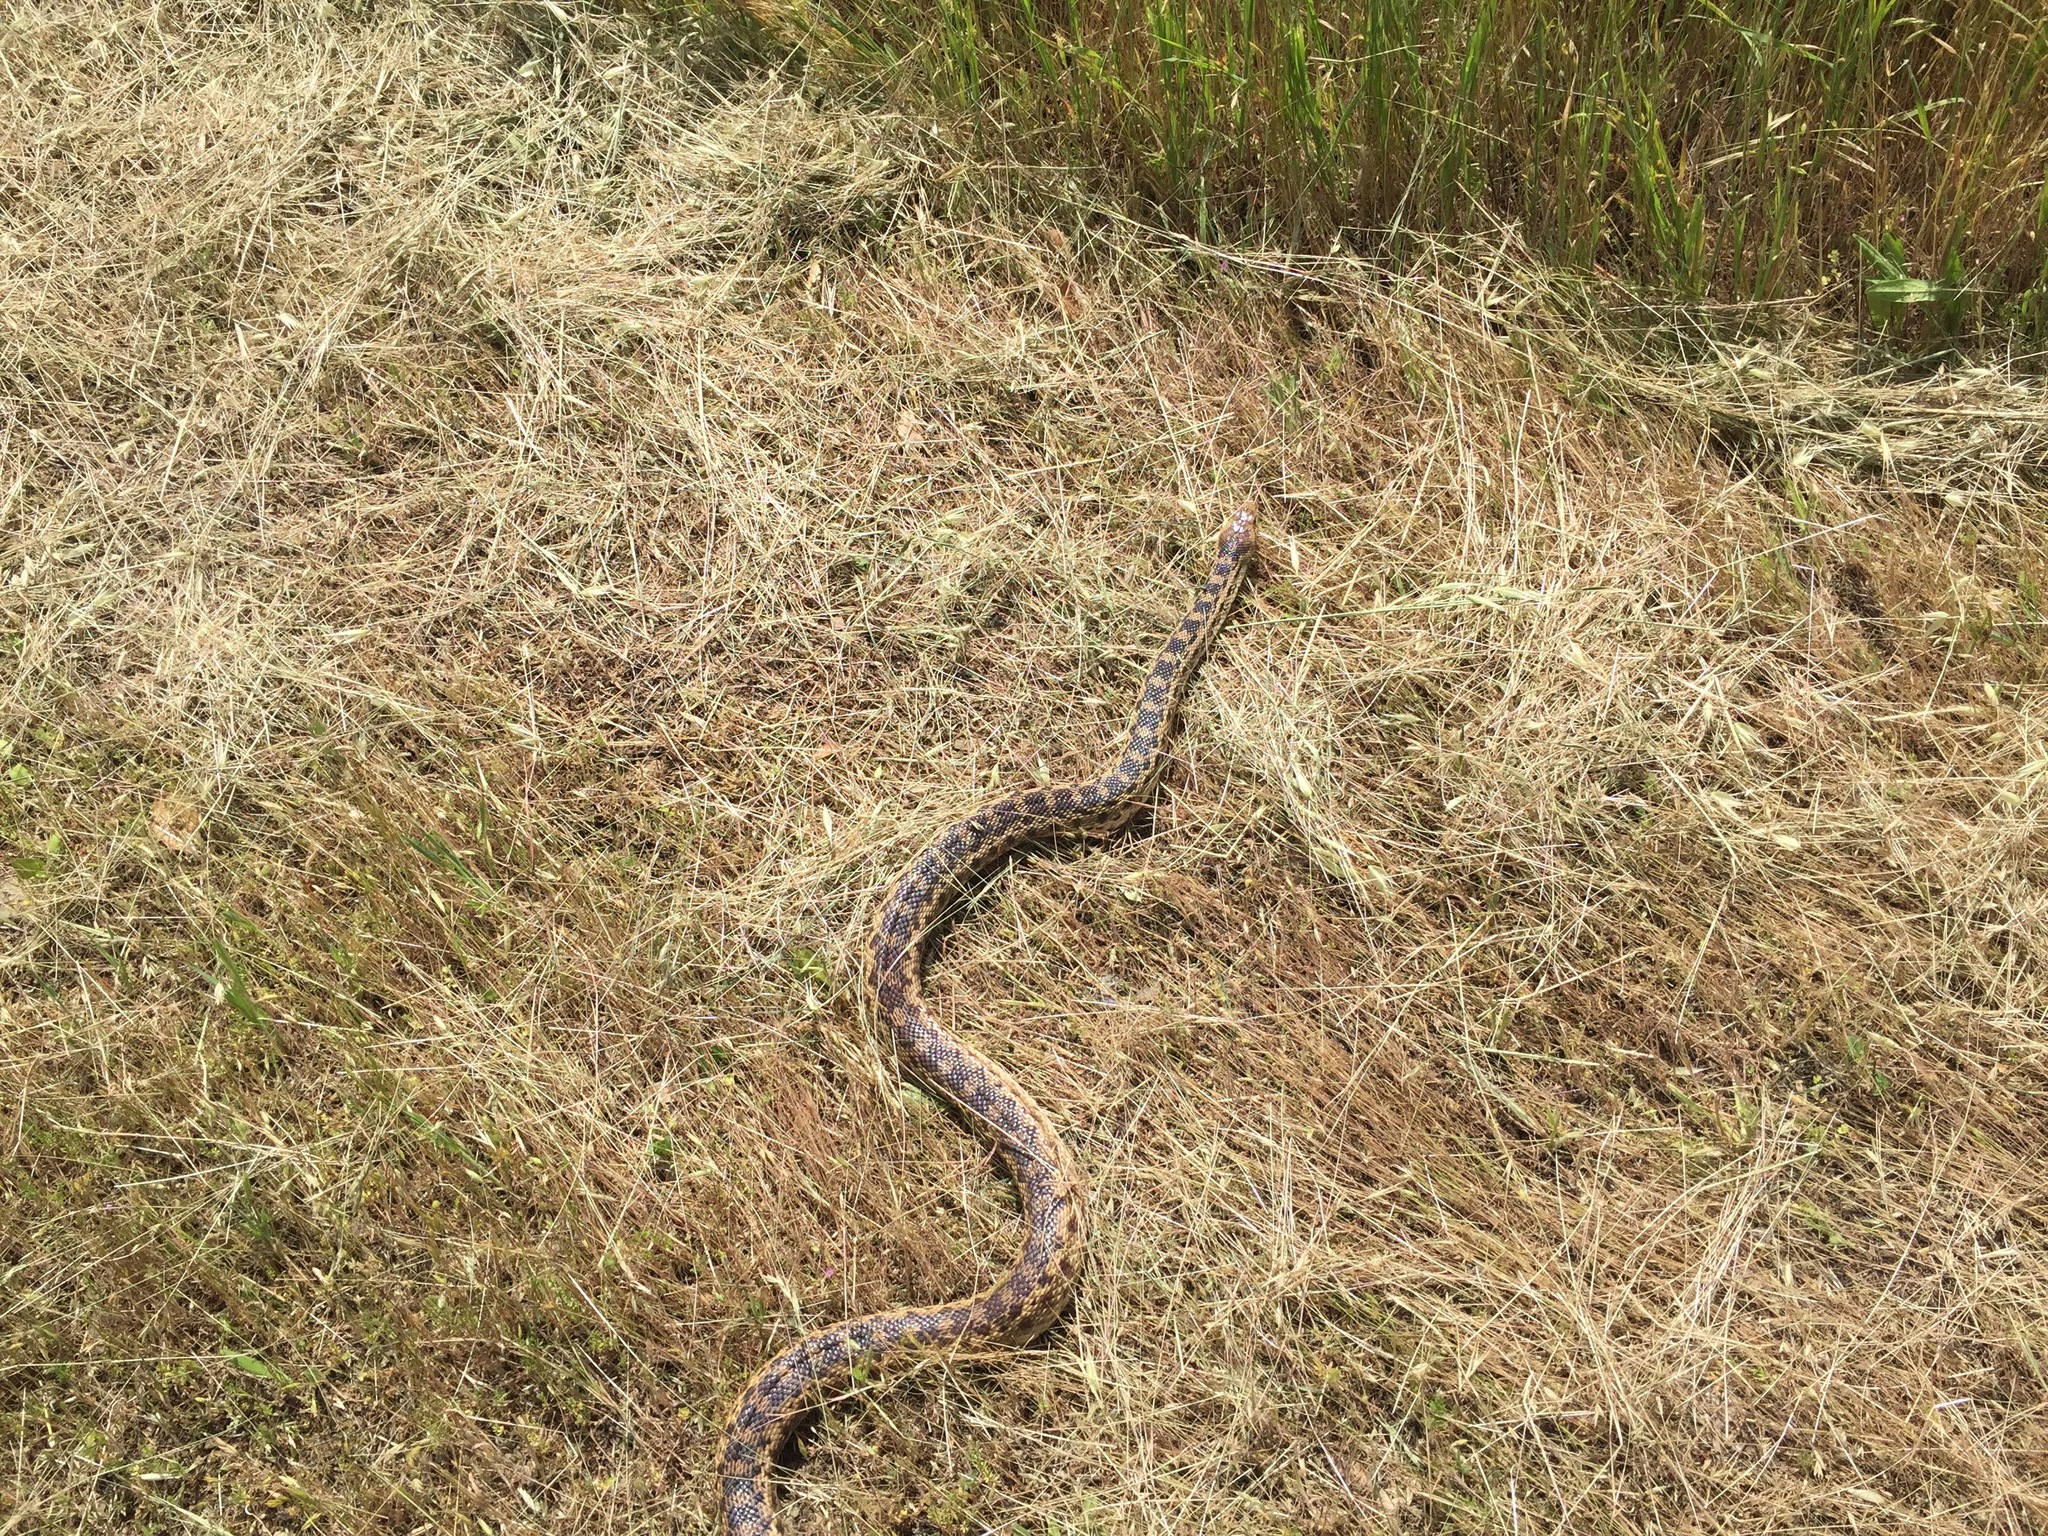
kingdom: Animalia
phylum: Chordata
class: Squamata
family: Colubridae
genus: Pituophis
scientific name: Pituophis catenifer
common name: Gopher snake
